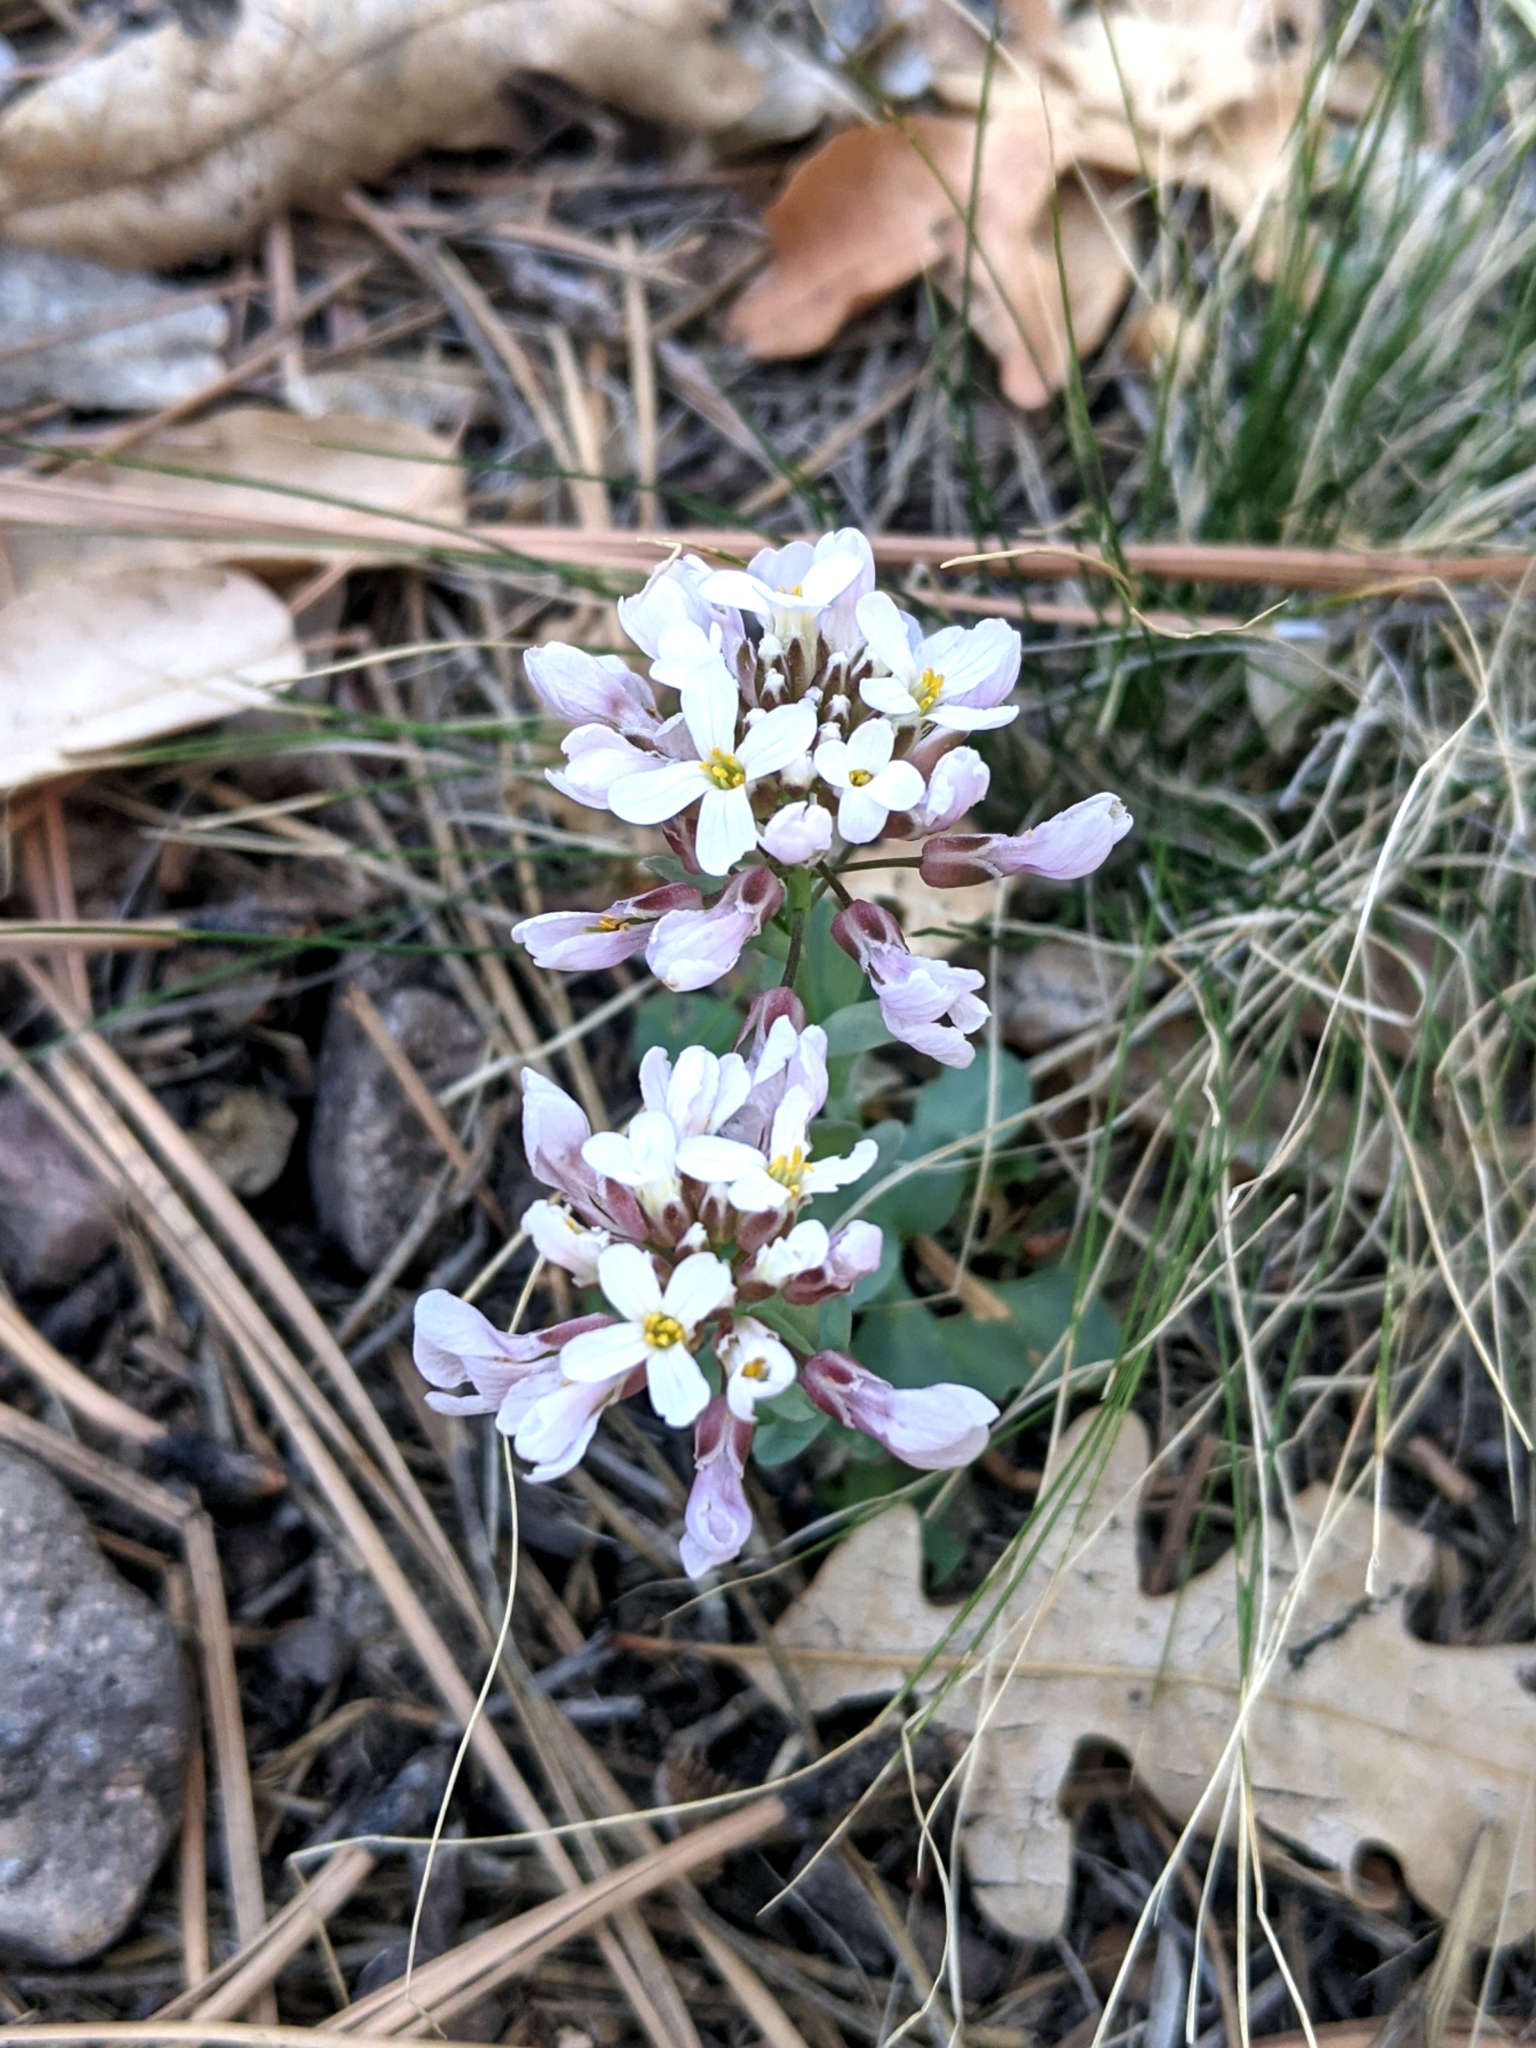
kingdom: Plantae
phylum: Tracheophyta
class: Magnoliopsida
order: Brassicales
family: Brassicaceae
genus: Noccaea
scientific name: Noccaea fendleri
